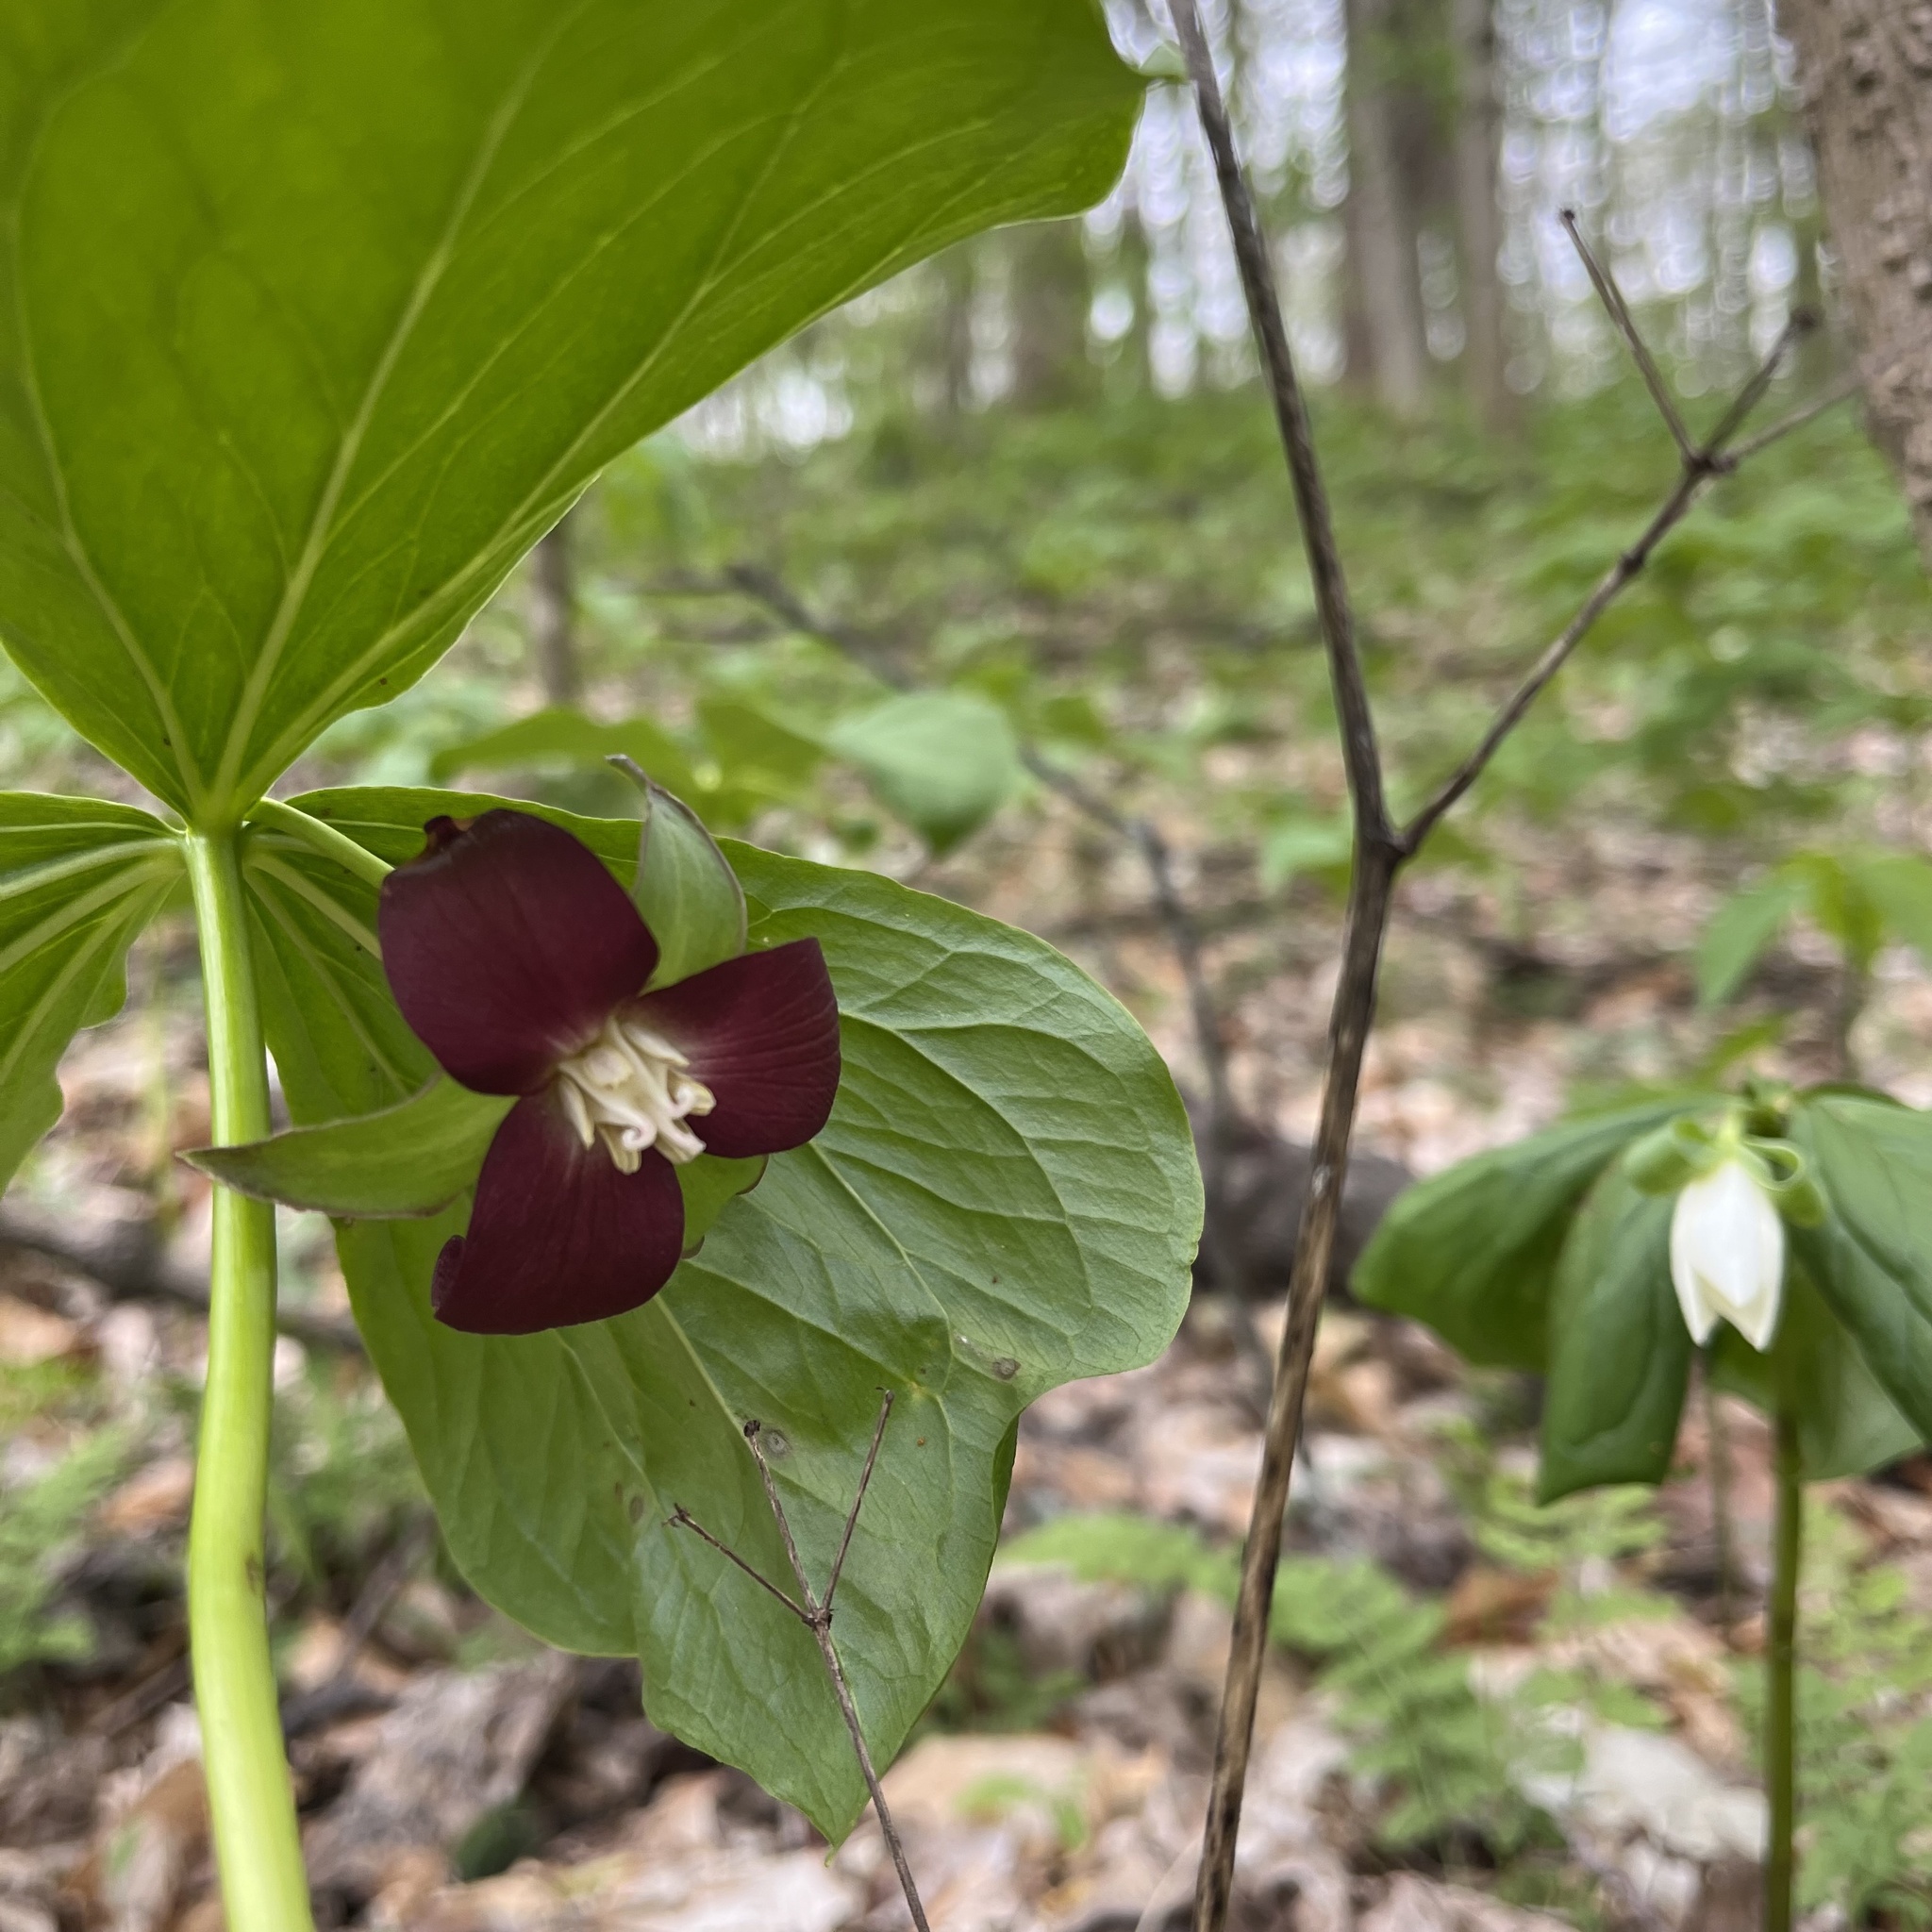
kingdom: Plantae
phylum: Tracheophyta
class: Liliopsida
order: Liliales
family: Melanthiaceae
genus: Trillium
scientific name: Trillium flexipes
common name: Drooping trillium
